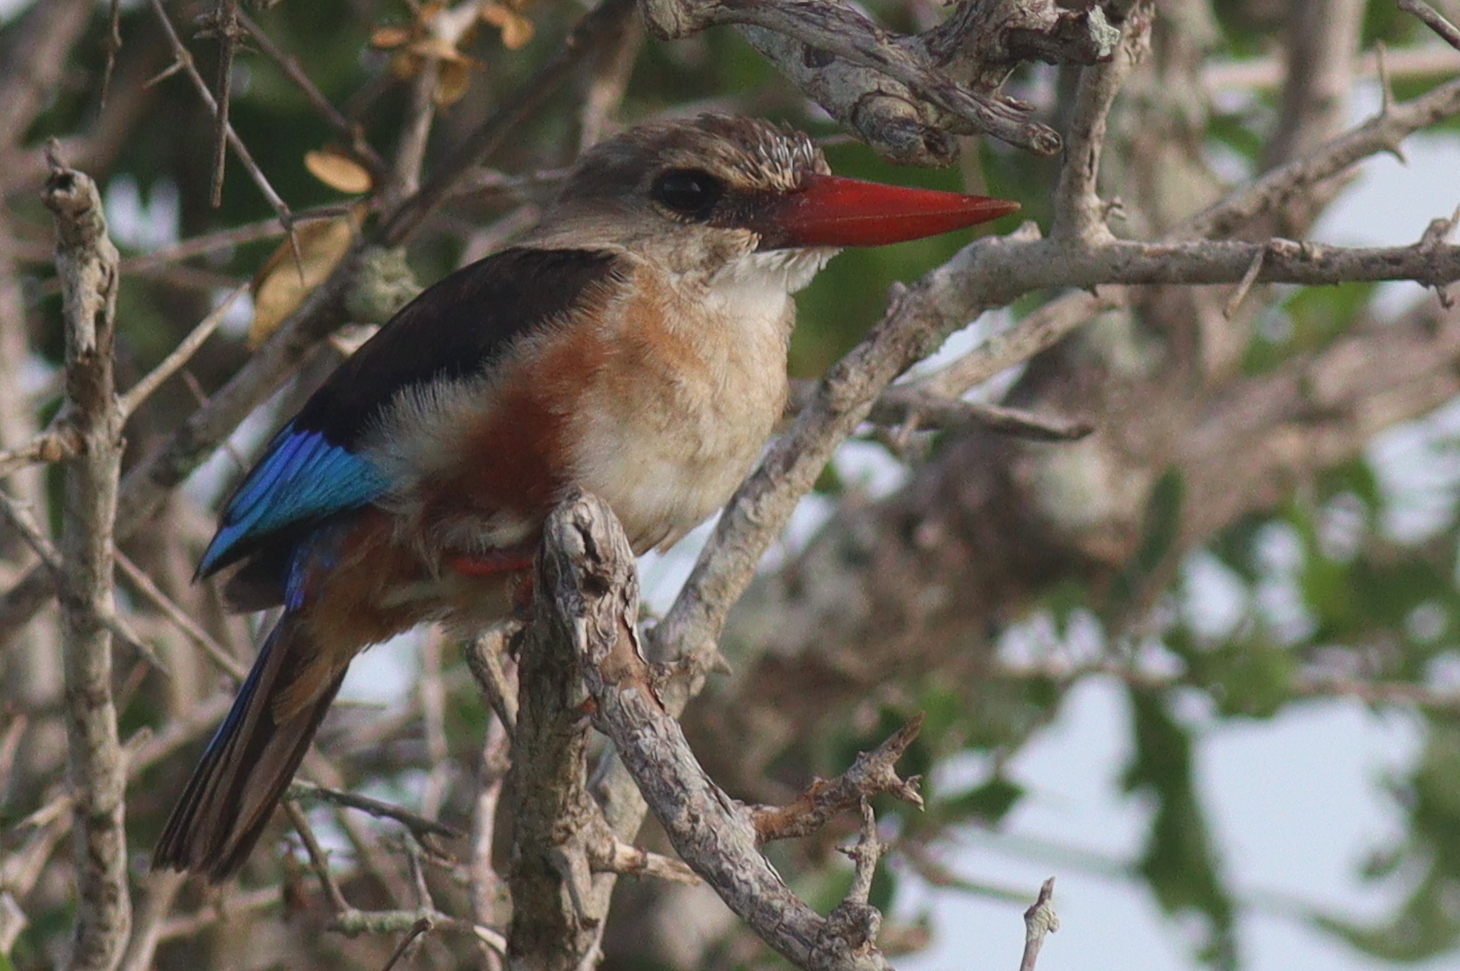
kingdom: Animalia
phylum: Chordata
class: Aves
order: Coraciiformes
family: Alcedinidae
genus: Halcyon
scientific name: Halcyon leucocephala
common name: Grey-headed kingfisher
